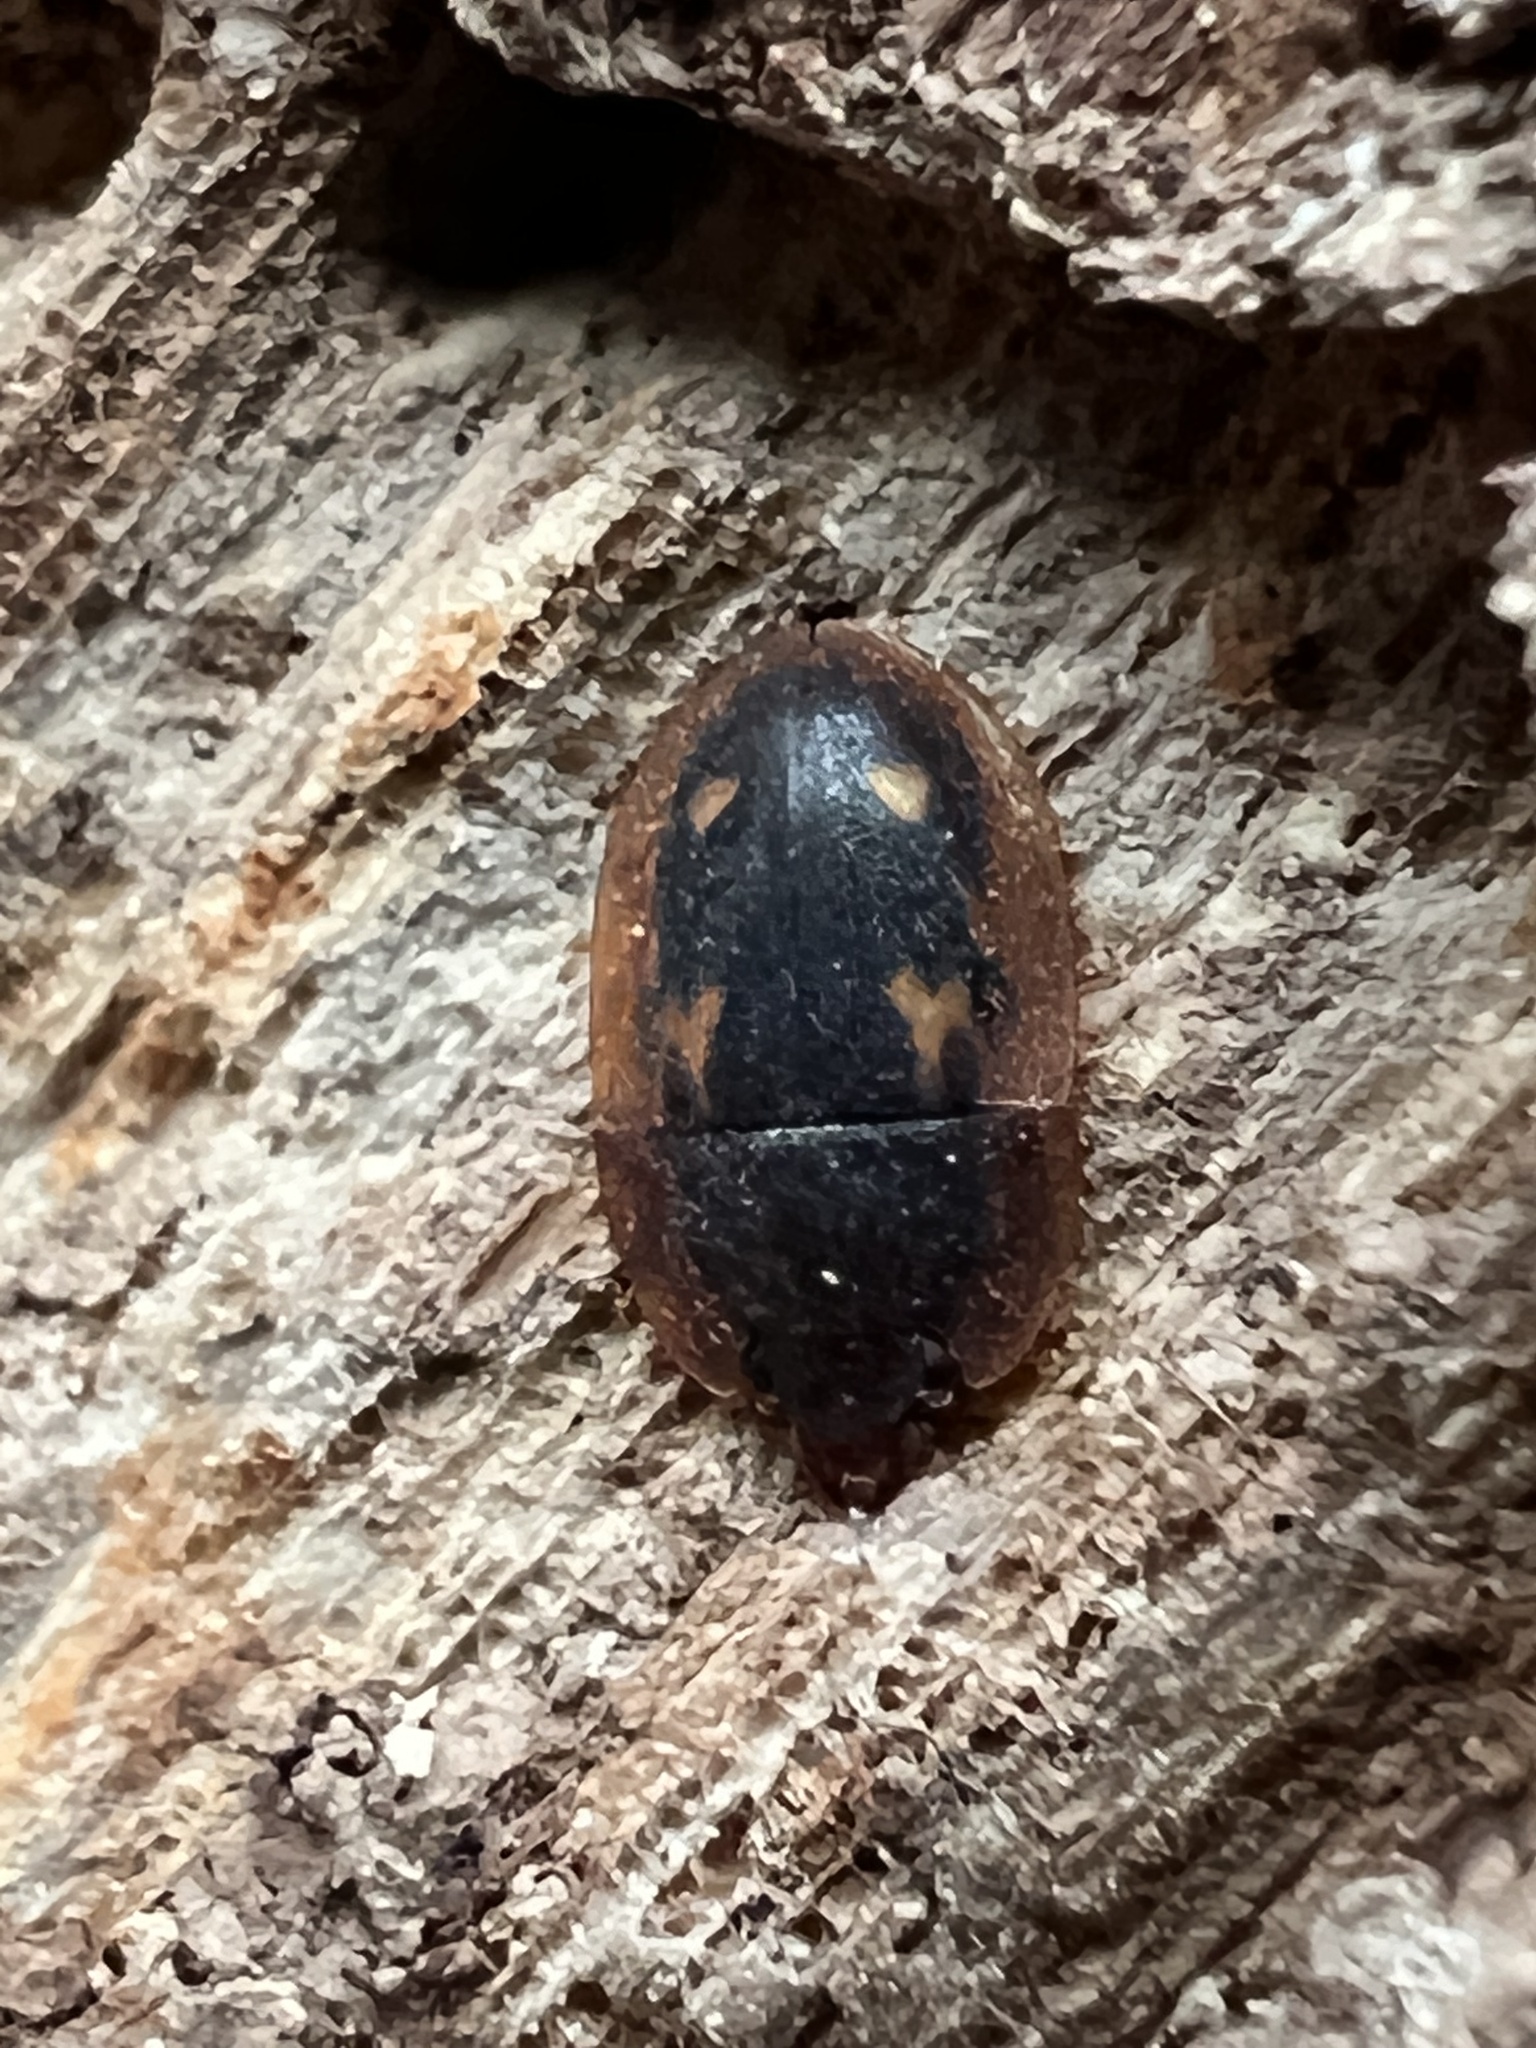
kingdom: Animalia
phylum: Arthropoda
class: Insecta
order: Coleoptera
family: Nitidulidae
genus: Prometopia
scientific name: Prometopia sexmaculata
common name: Six-spotted sap-feeding beetle
